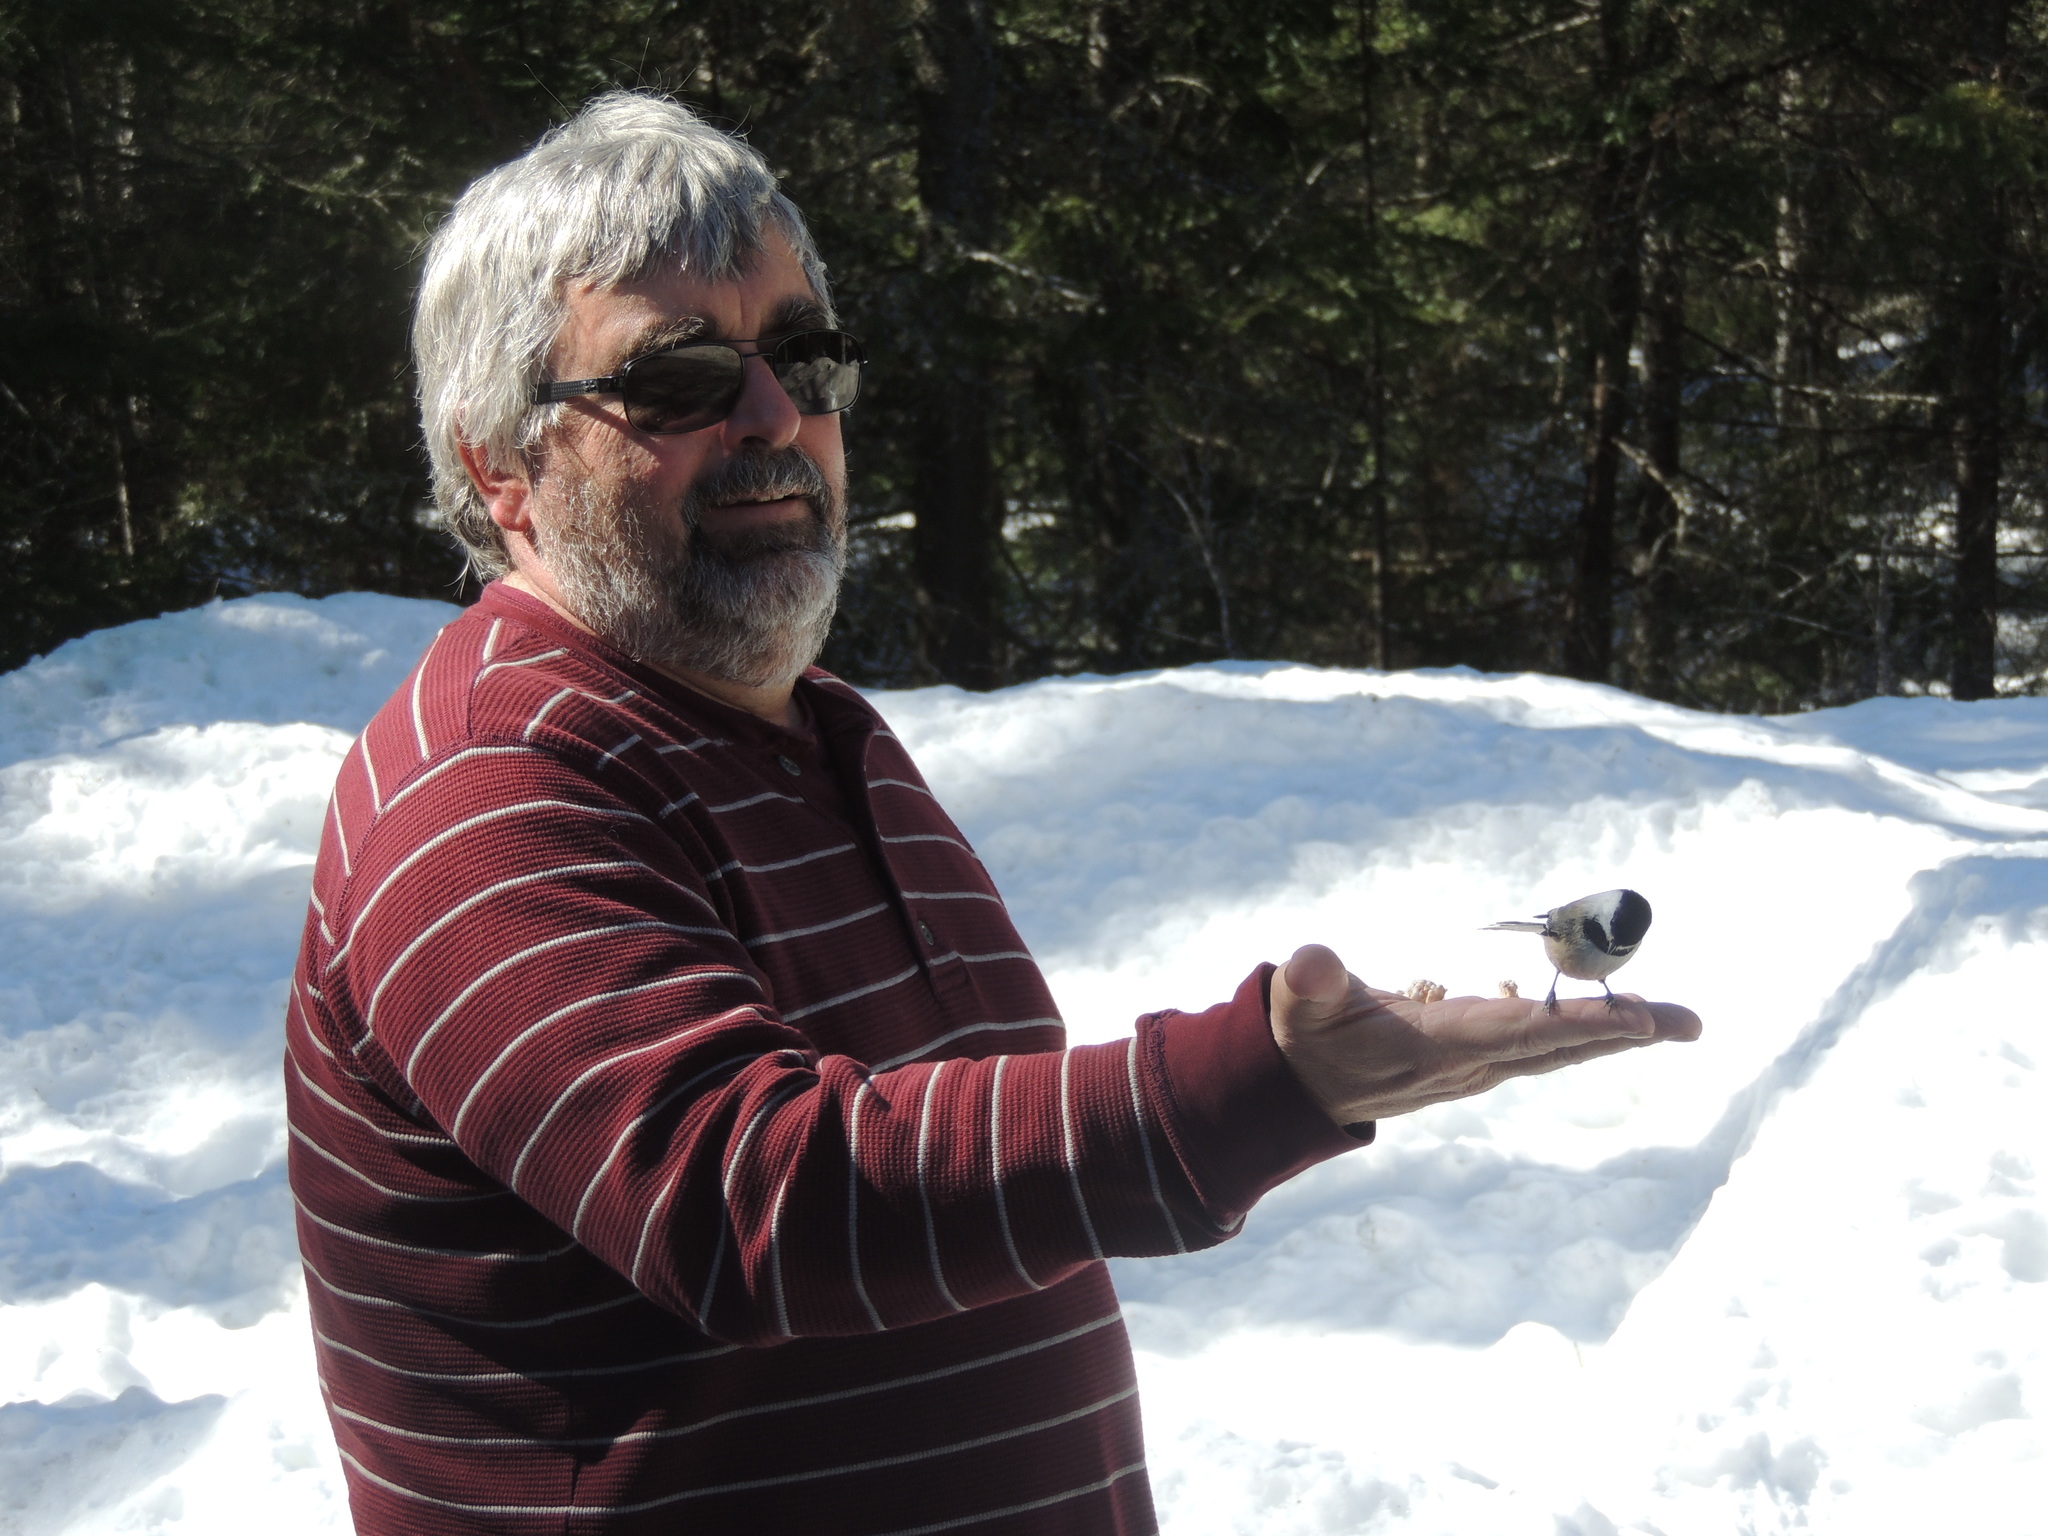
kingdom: Animalia
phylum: Chordata
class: Aves
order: Passeriformes
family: Paridae
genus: Poecile
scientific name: Poecile atricapillus
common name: Black-capped chickadee
